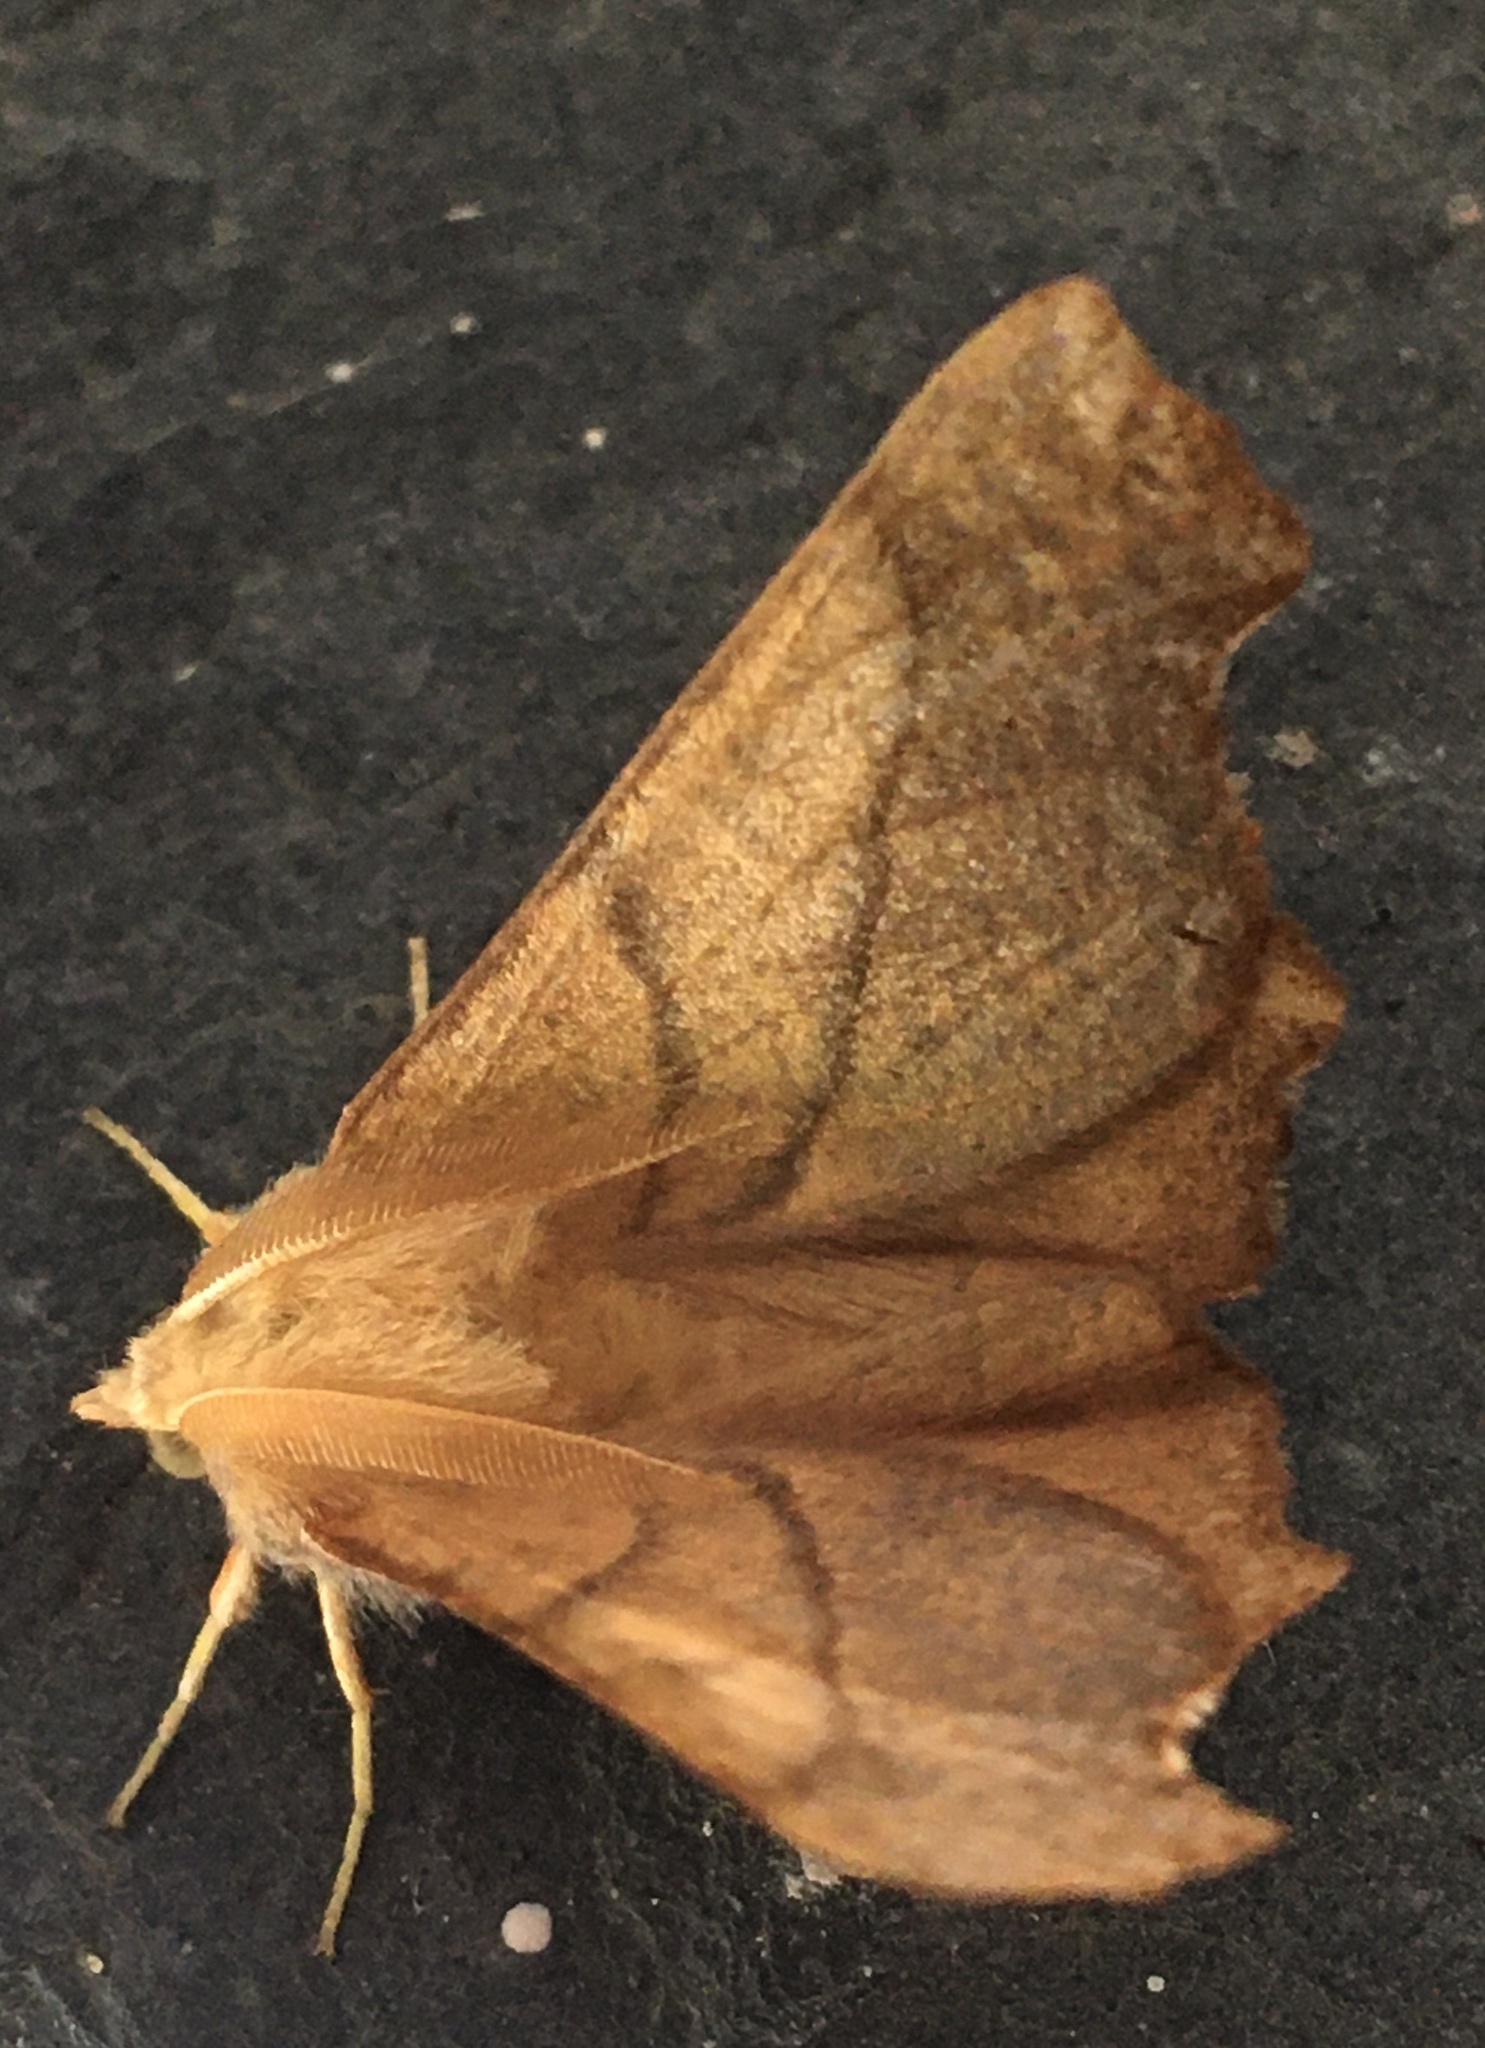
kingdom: Animalia
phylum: Arthropoda
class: Insecta
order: Lepidoptera
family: Geometridae
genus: Ennomos
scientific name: Ennomos fuscantaria
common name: Dusky thorn
